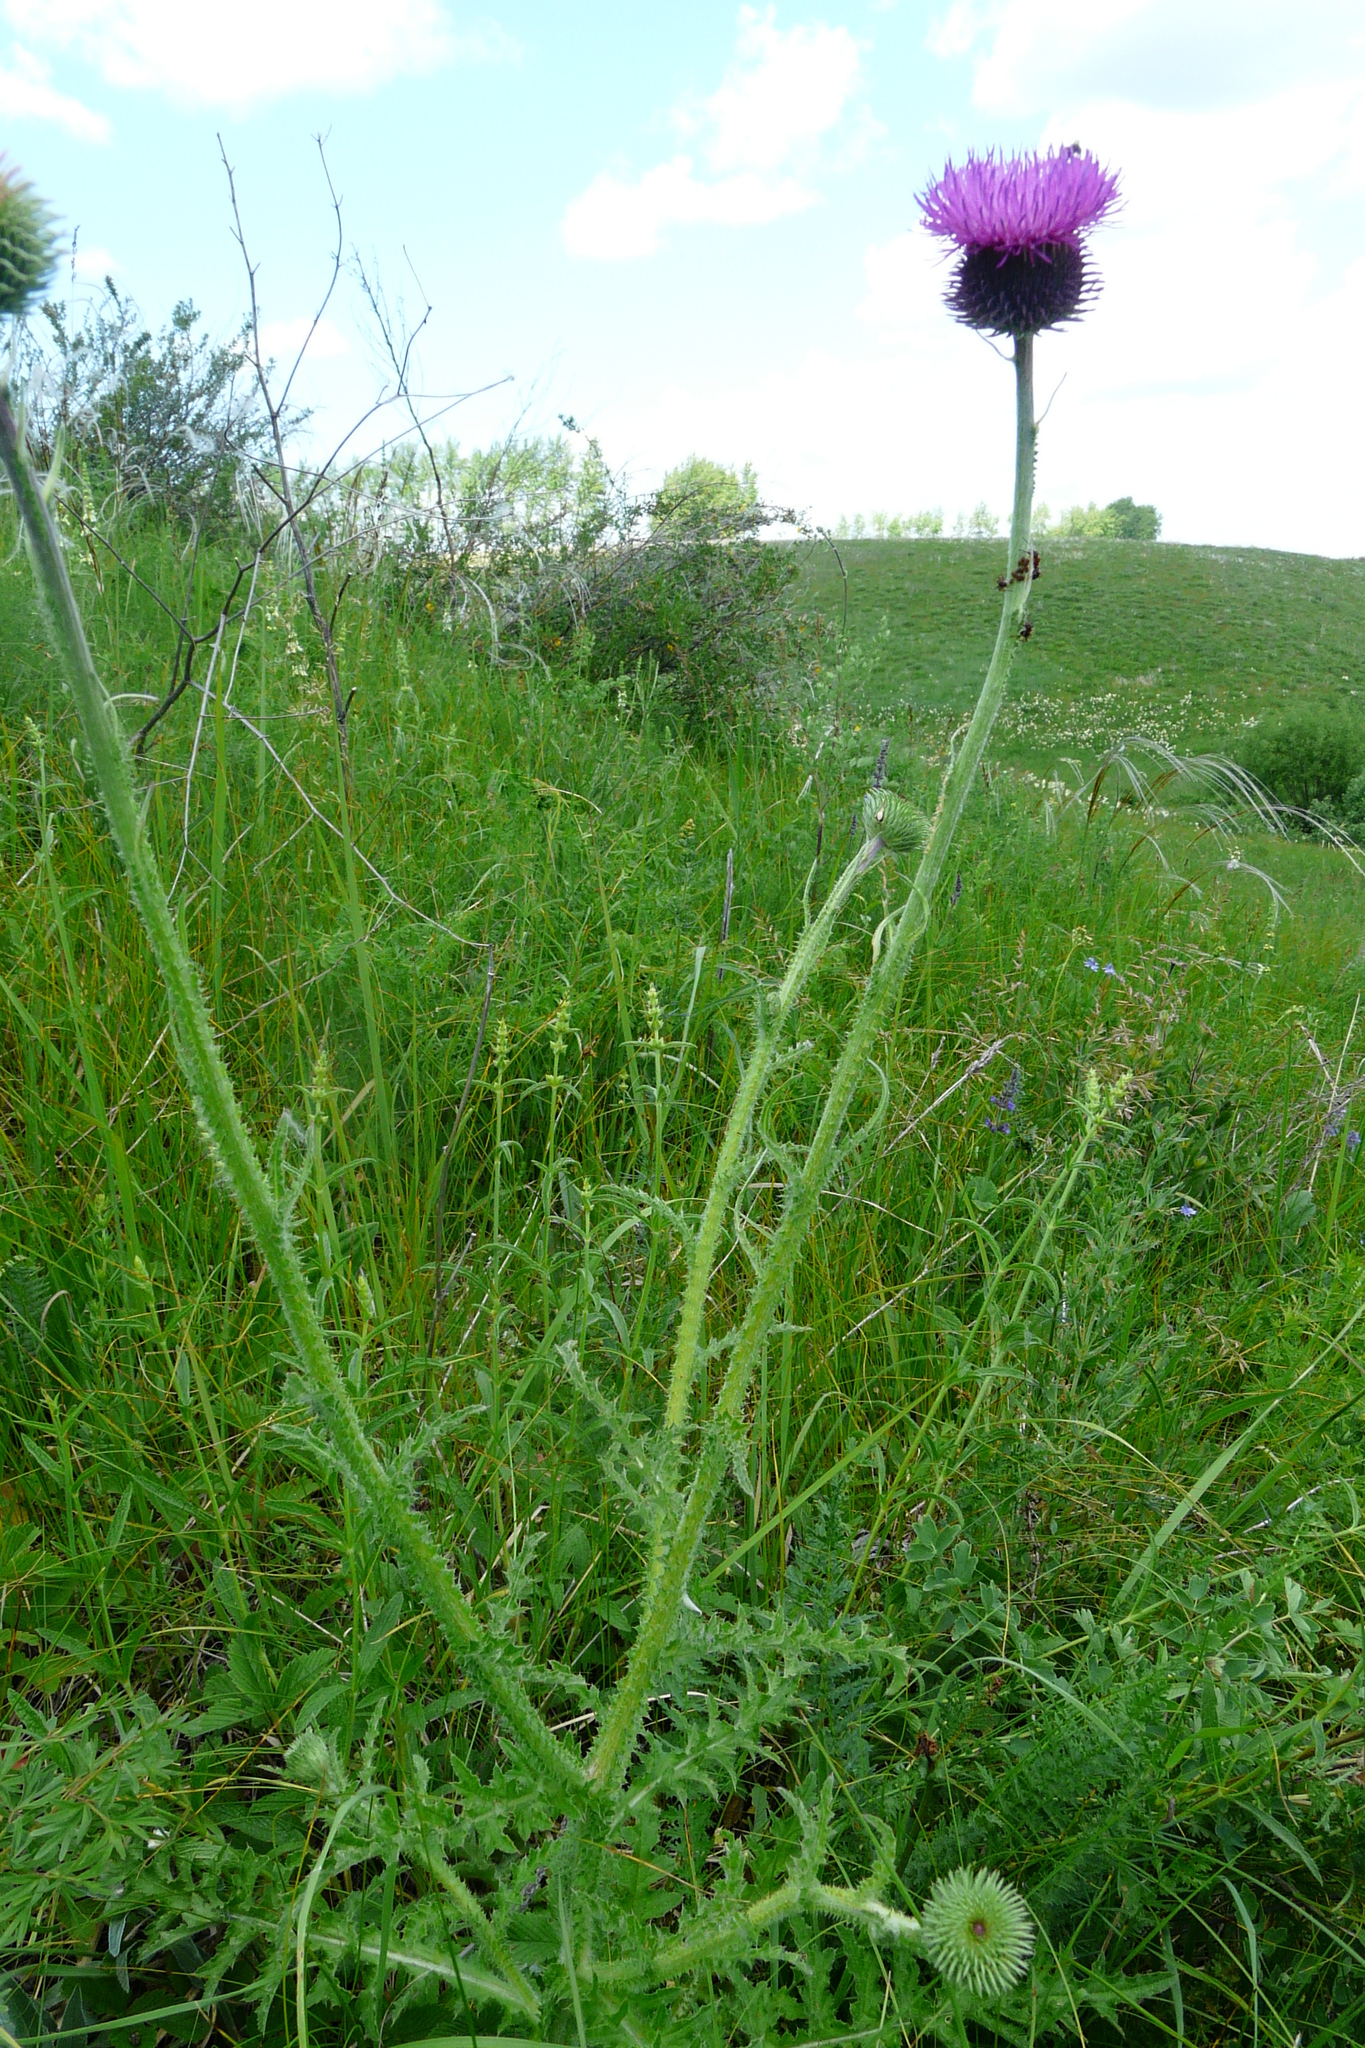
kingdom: Plantae
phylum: Tracheophyta
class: Magnoliopsida
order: Asterales
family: Asteraceae
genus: Carduus
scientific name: Carduus hamulosus
